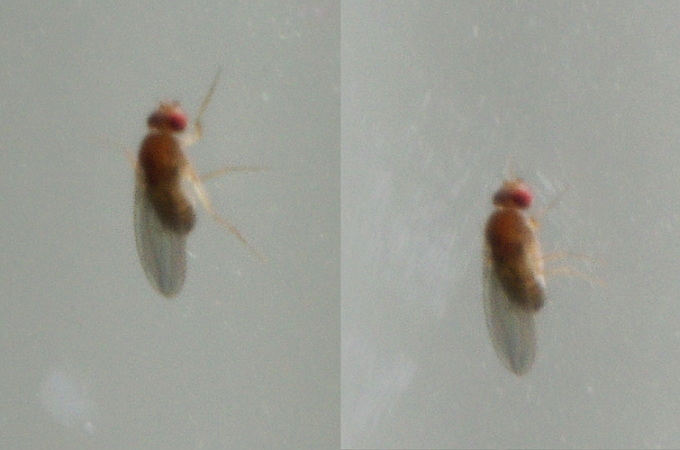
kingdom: Animalia
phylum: Arthropoda
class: Insecta
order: Diptera
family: Drosophilidae
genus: Drosophila
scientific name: Drosophila
